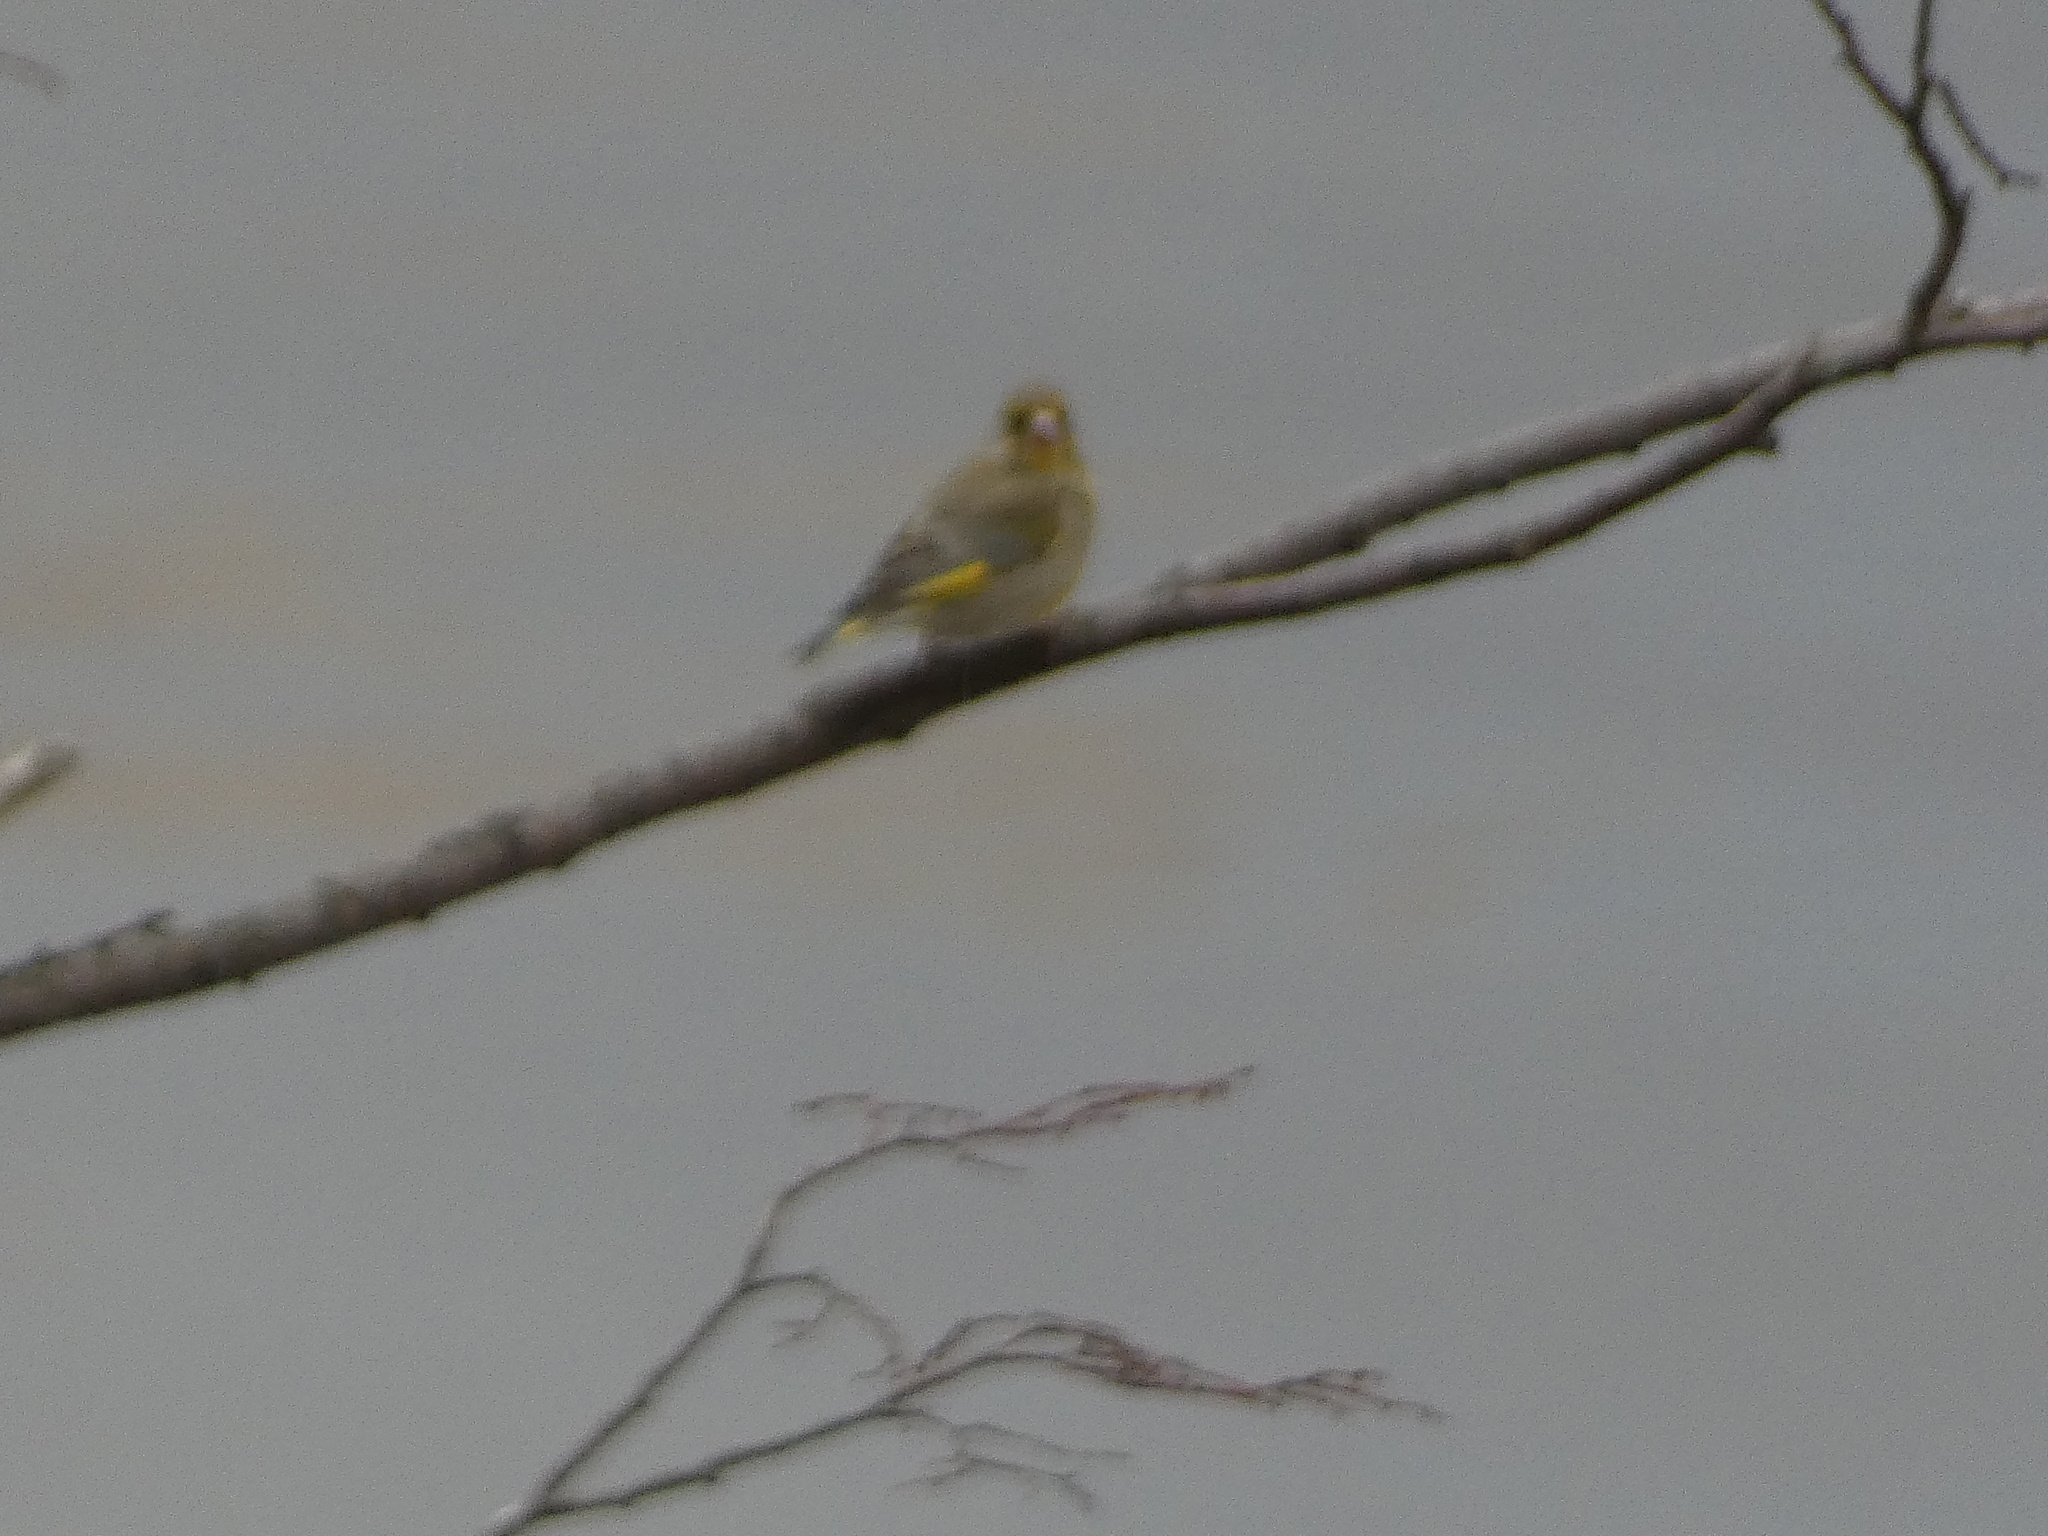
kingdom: Plantae
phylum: Tracheophyta
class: Liliopsida
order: Poales
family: Poaceae
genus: Chloris
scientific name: Chloris chloris
